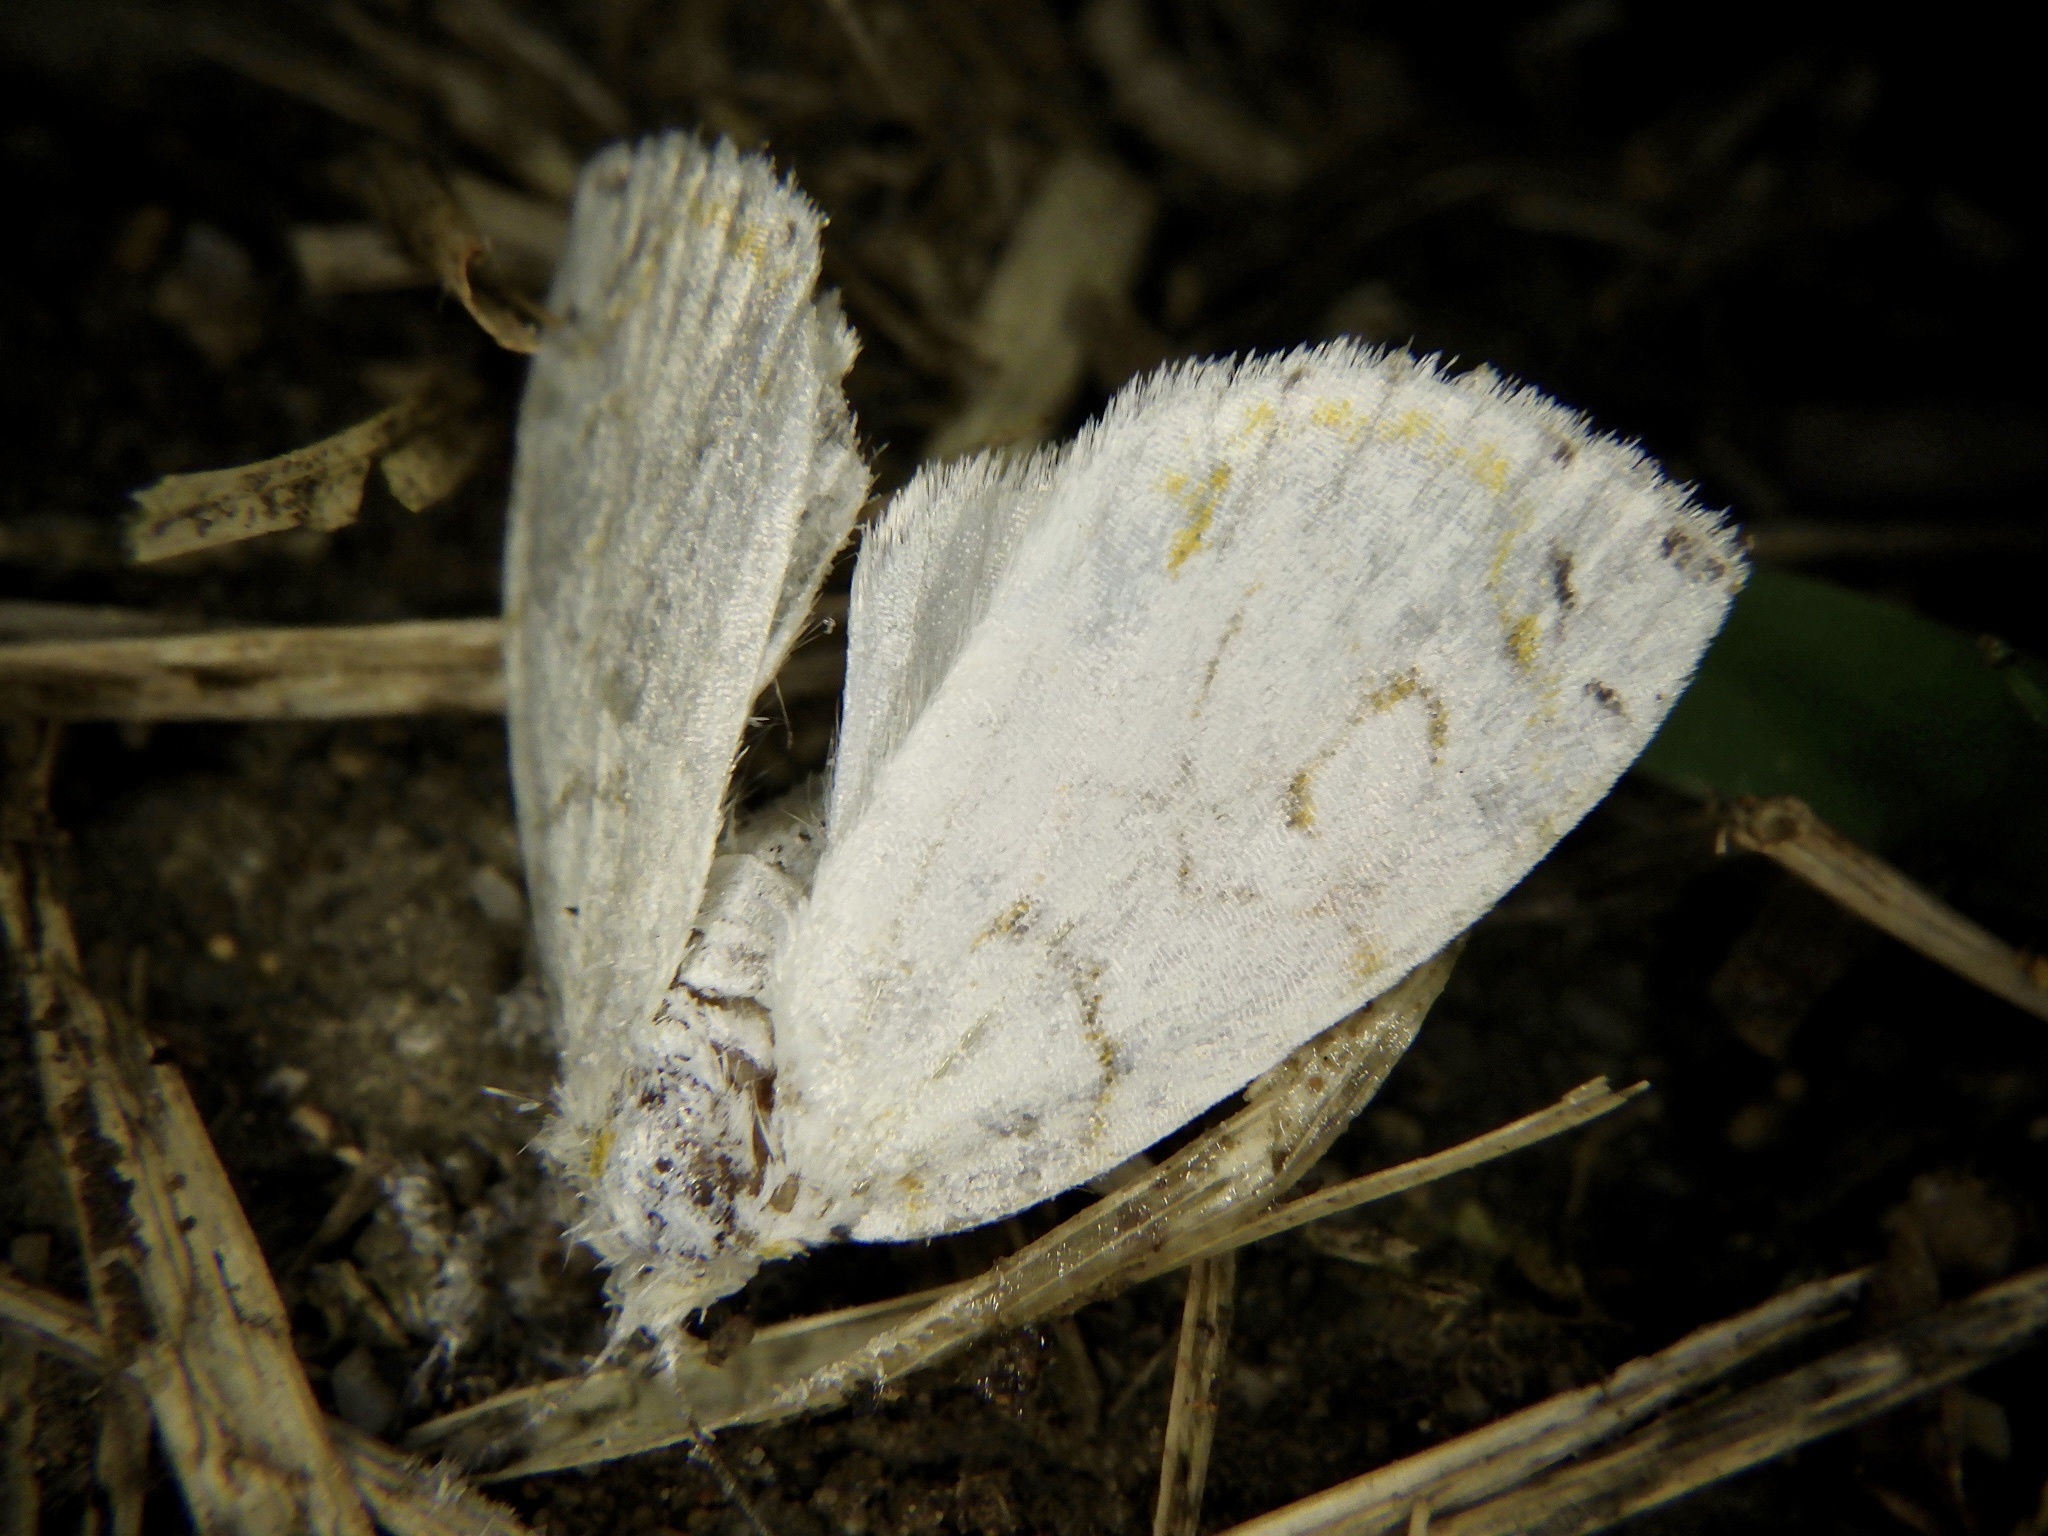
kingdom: Animalia
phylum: Arthropoda
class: Insecta
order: Lepidoptera
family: Nolidae
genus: Sinna
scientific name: Sinna extrema
